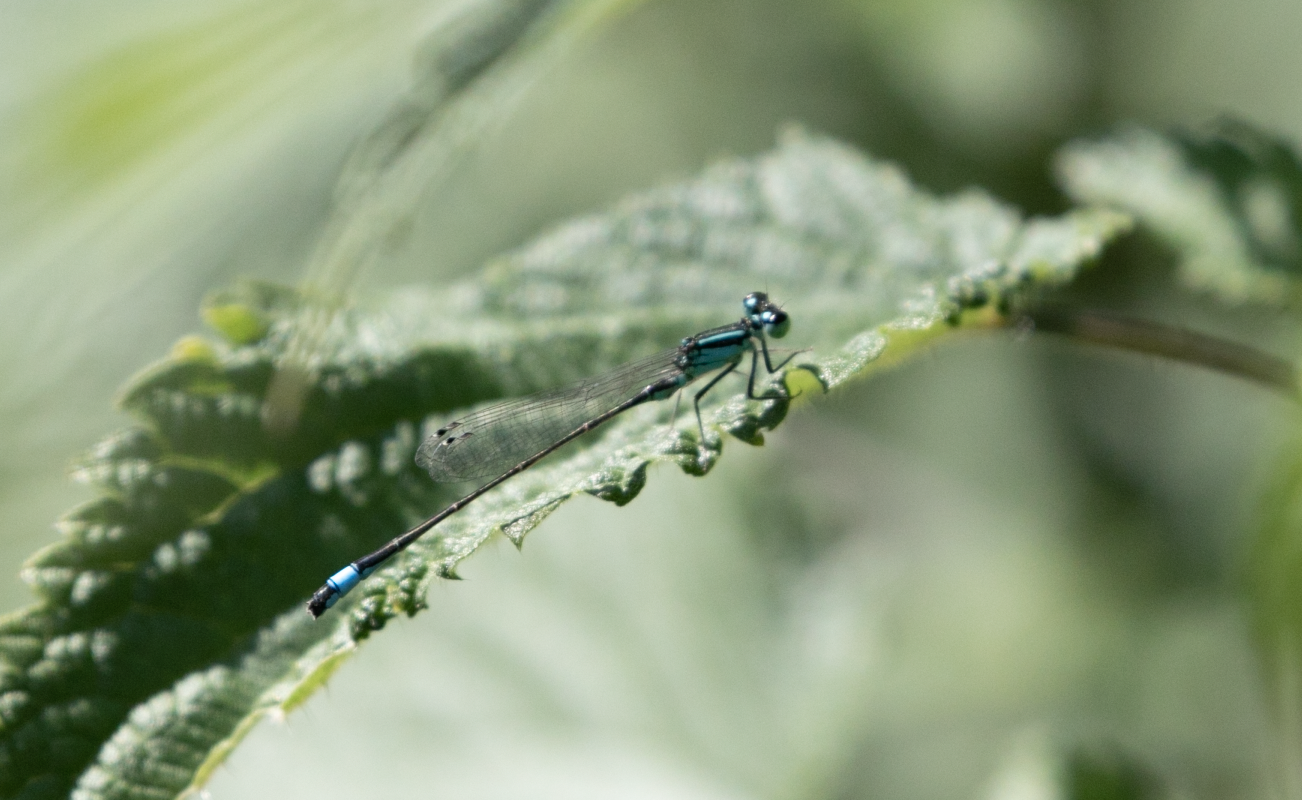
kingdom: Animalia
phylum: Arthropoda
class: Insecta
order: Odonata
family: Coenagrionidae
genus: Ischnura
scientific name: Ischnura elegans
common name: Blue-tailed damselfly
